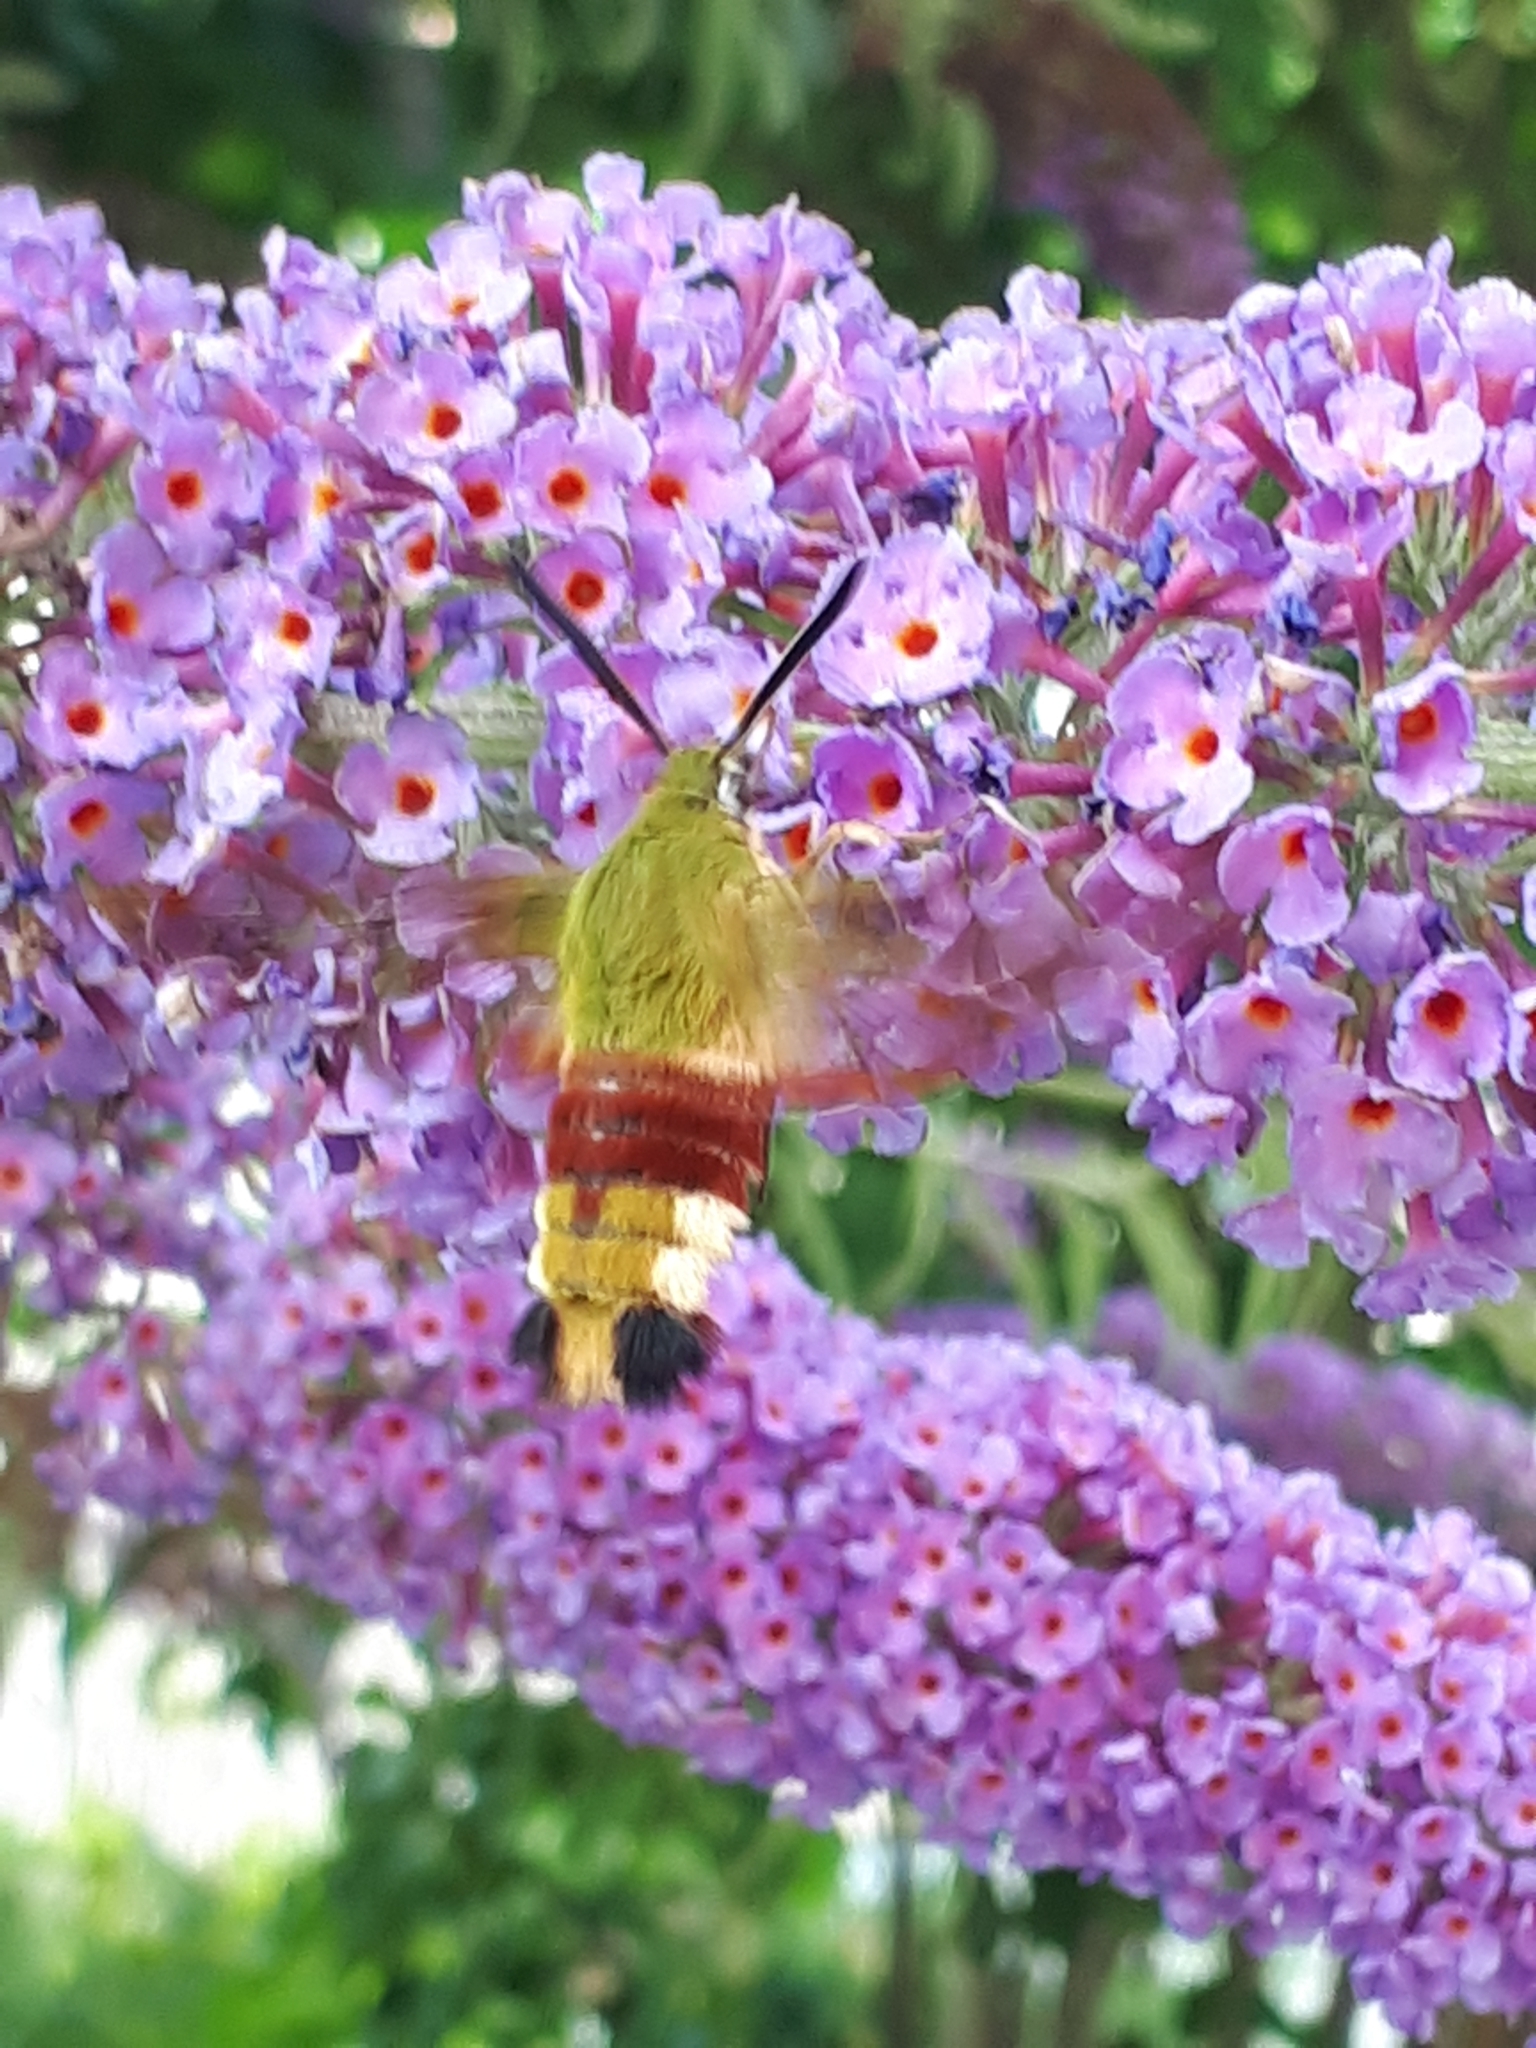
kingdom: Animalia
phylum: Arthropoda
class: Insecta
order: Lepidoptera
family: Sphingidae
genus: Hemaris
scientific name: Hemaris fuciformis
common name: Broad-bordered bee hawk-moth
